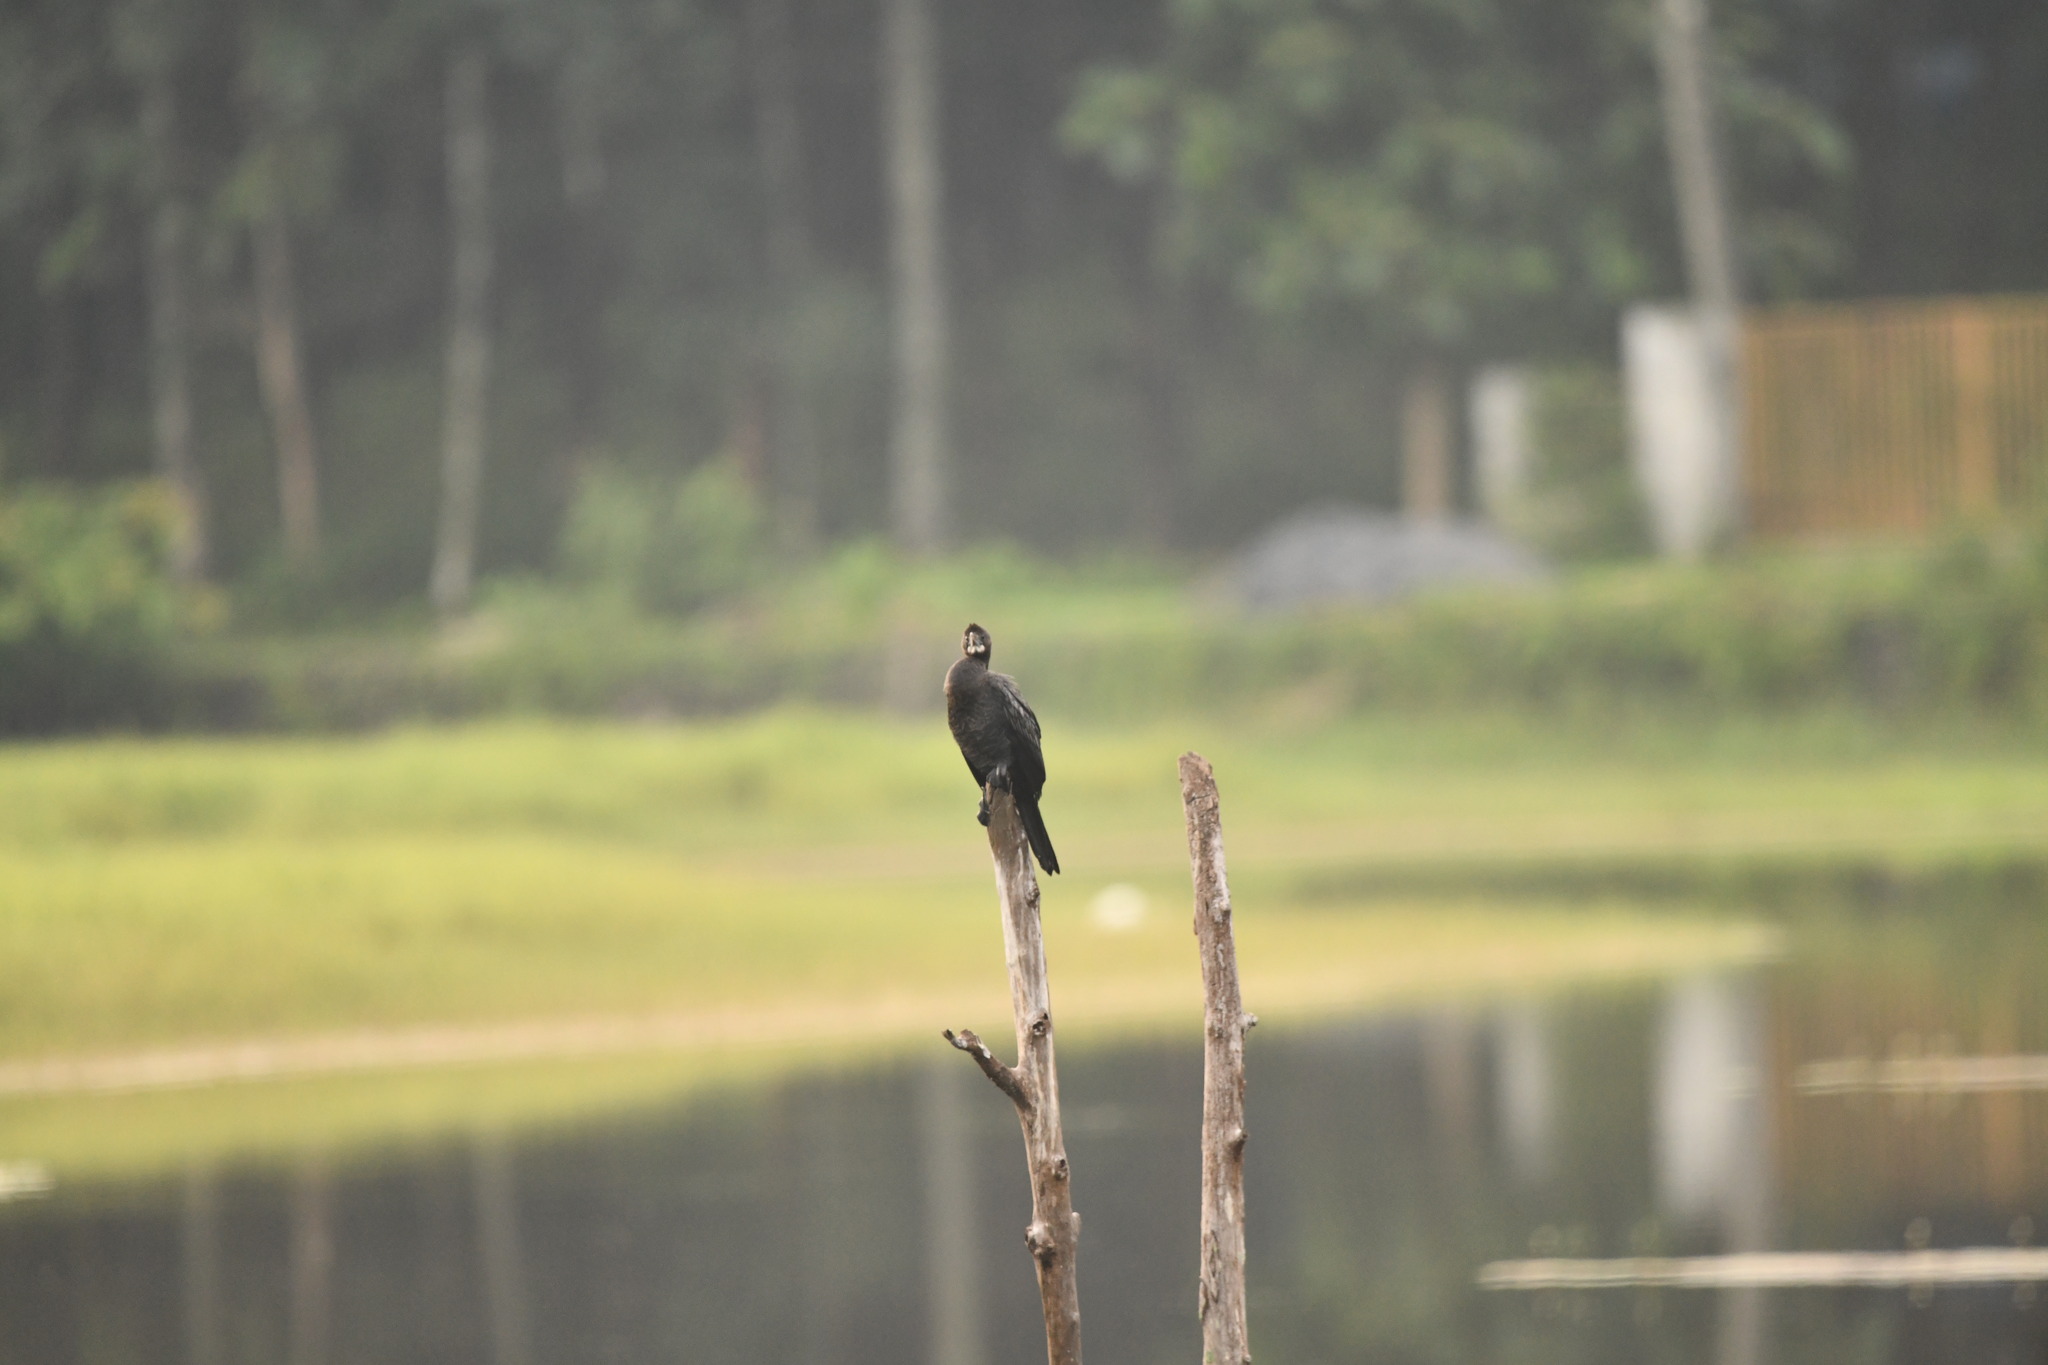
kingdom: Animalia
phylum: Chordata
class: Aves
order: Suliformes
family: Phalacrocoracidae
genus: Microcarbo
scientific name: Microcarbo niger
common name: Little cormorant
